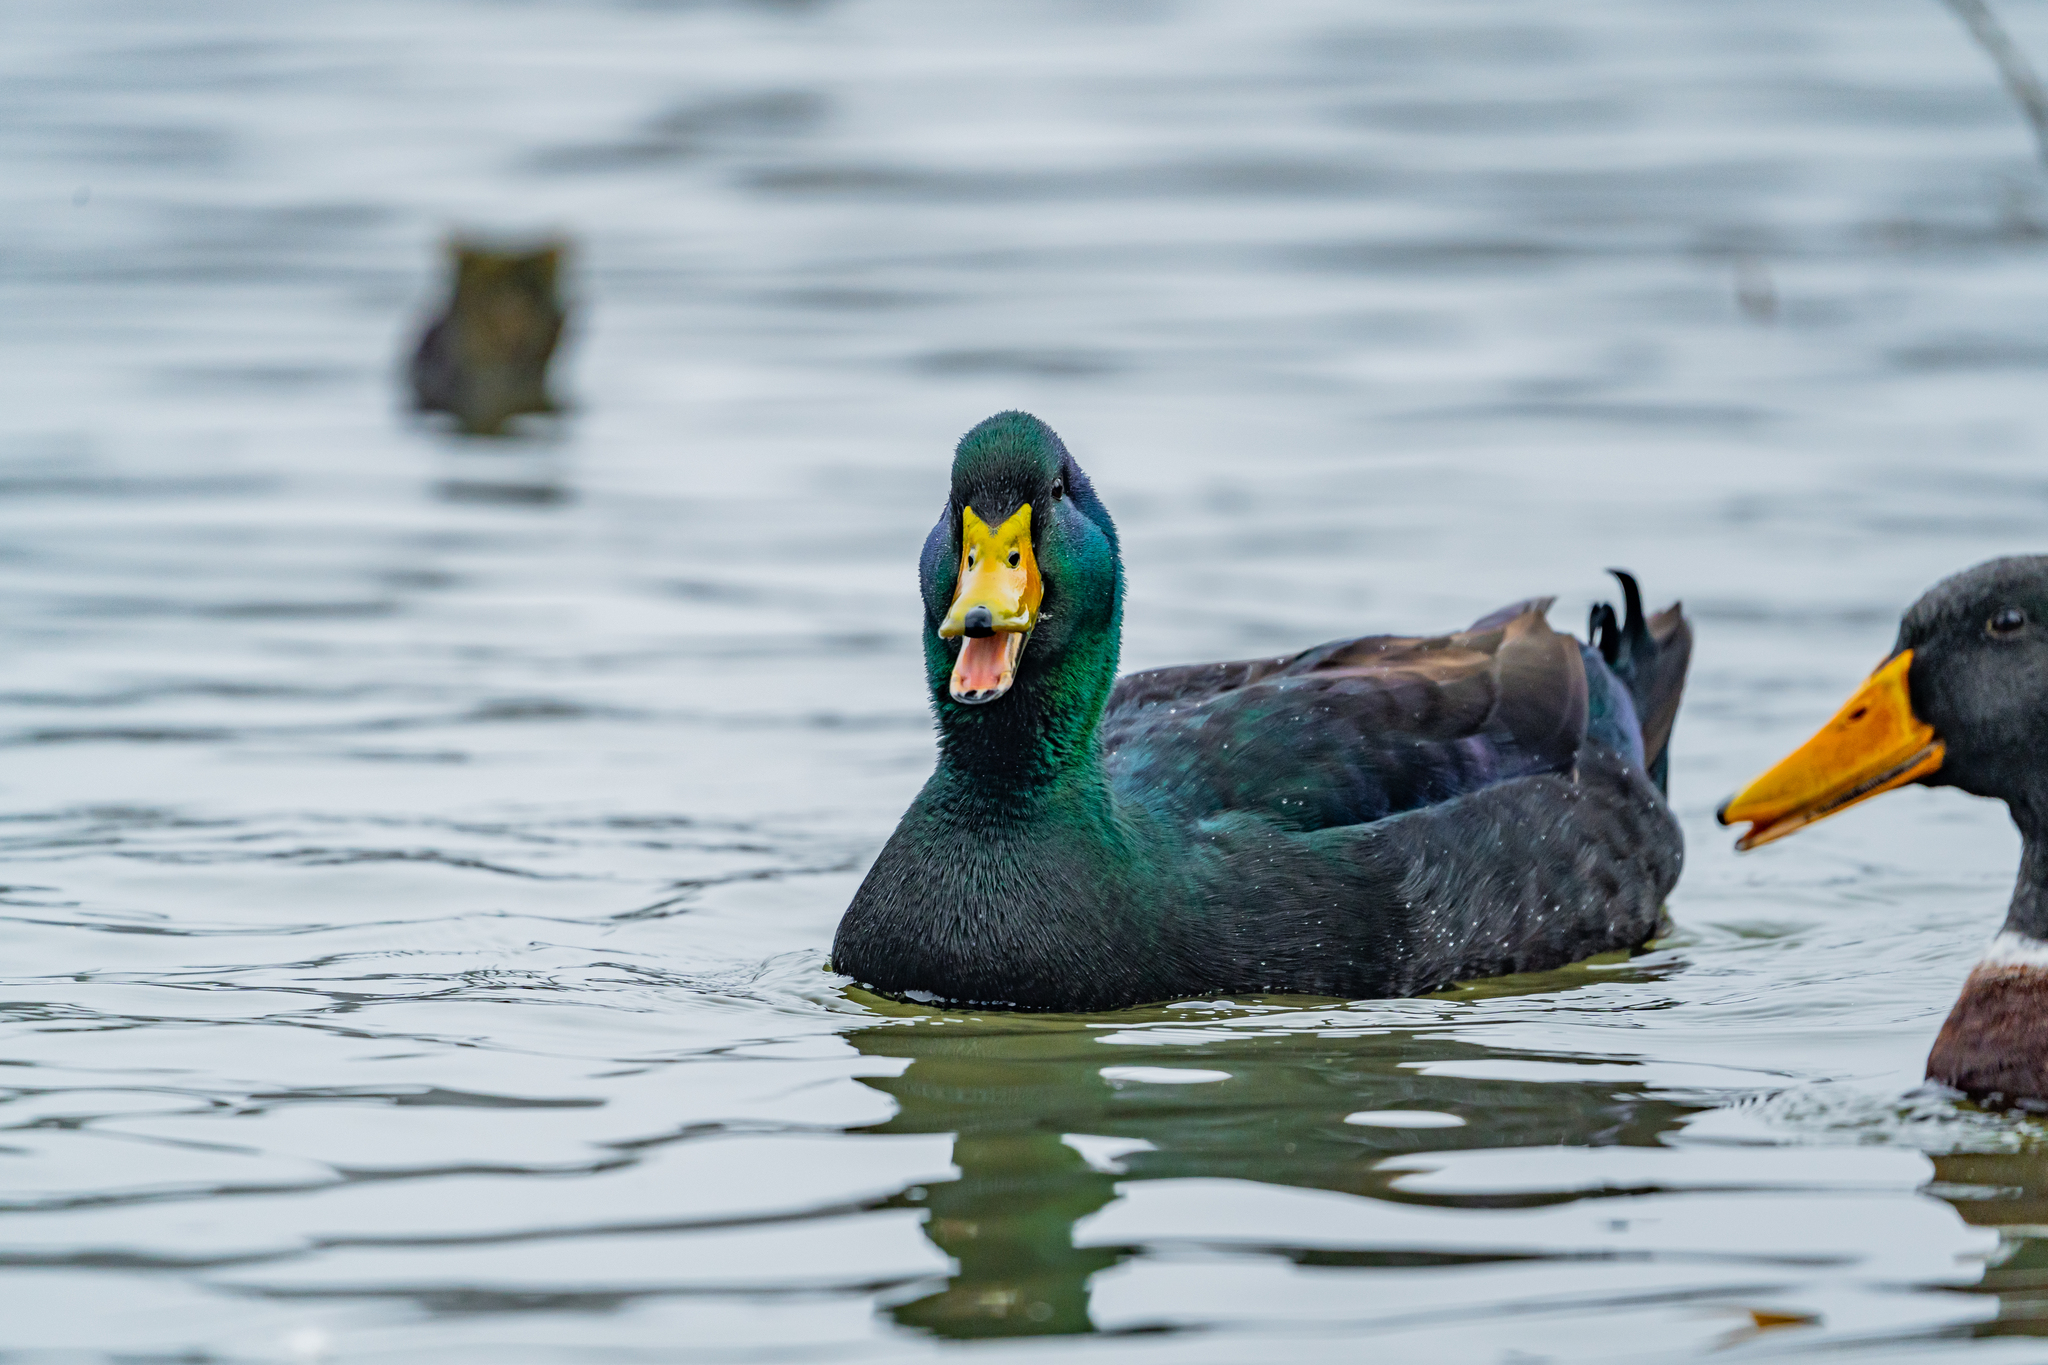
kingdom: Animalia
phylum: Chordata
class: Aves
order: Anseriformes
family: Anatidae
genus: Anas
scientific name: Anas platyrhynchos
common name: Mallard
